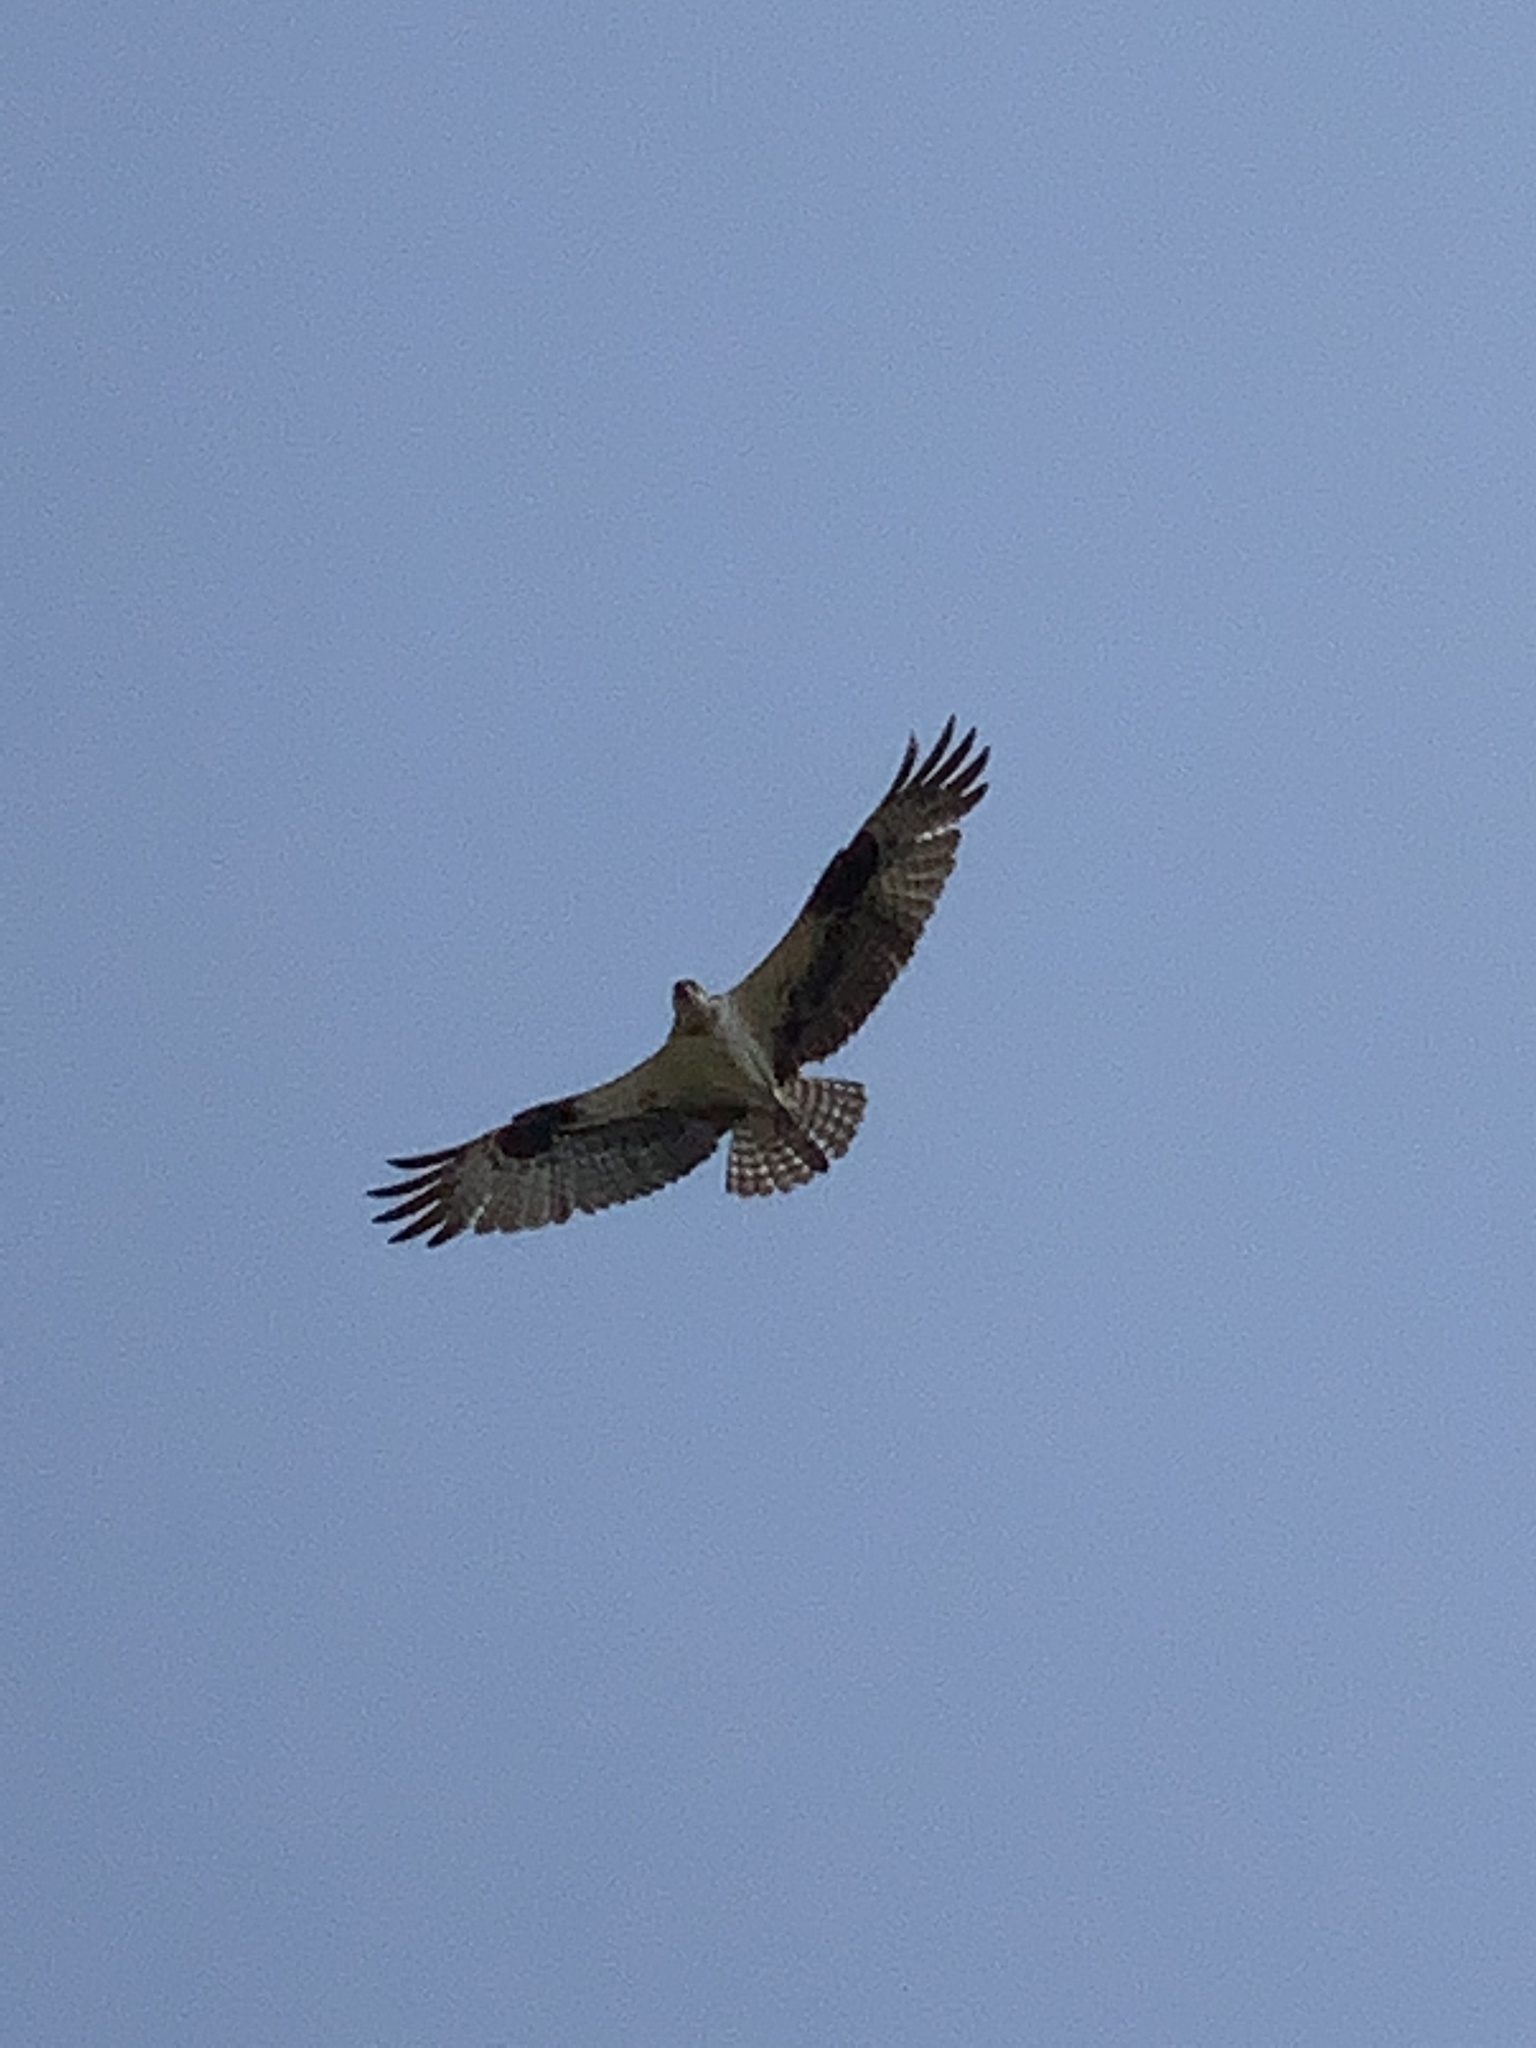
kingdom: Animalia
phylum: Chordata
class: Aves
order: Accipitriformes
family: Pandionidae
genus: Pandion
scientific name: Pandion haliaetus
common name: Osprey
